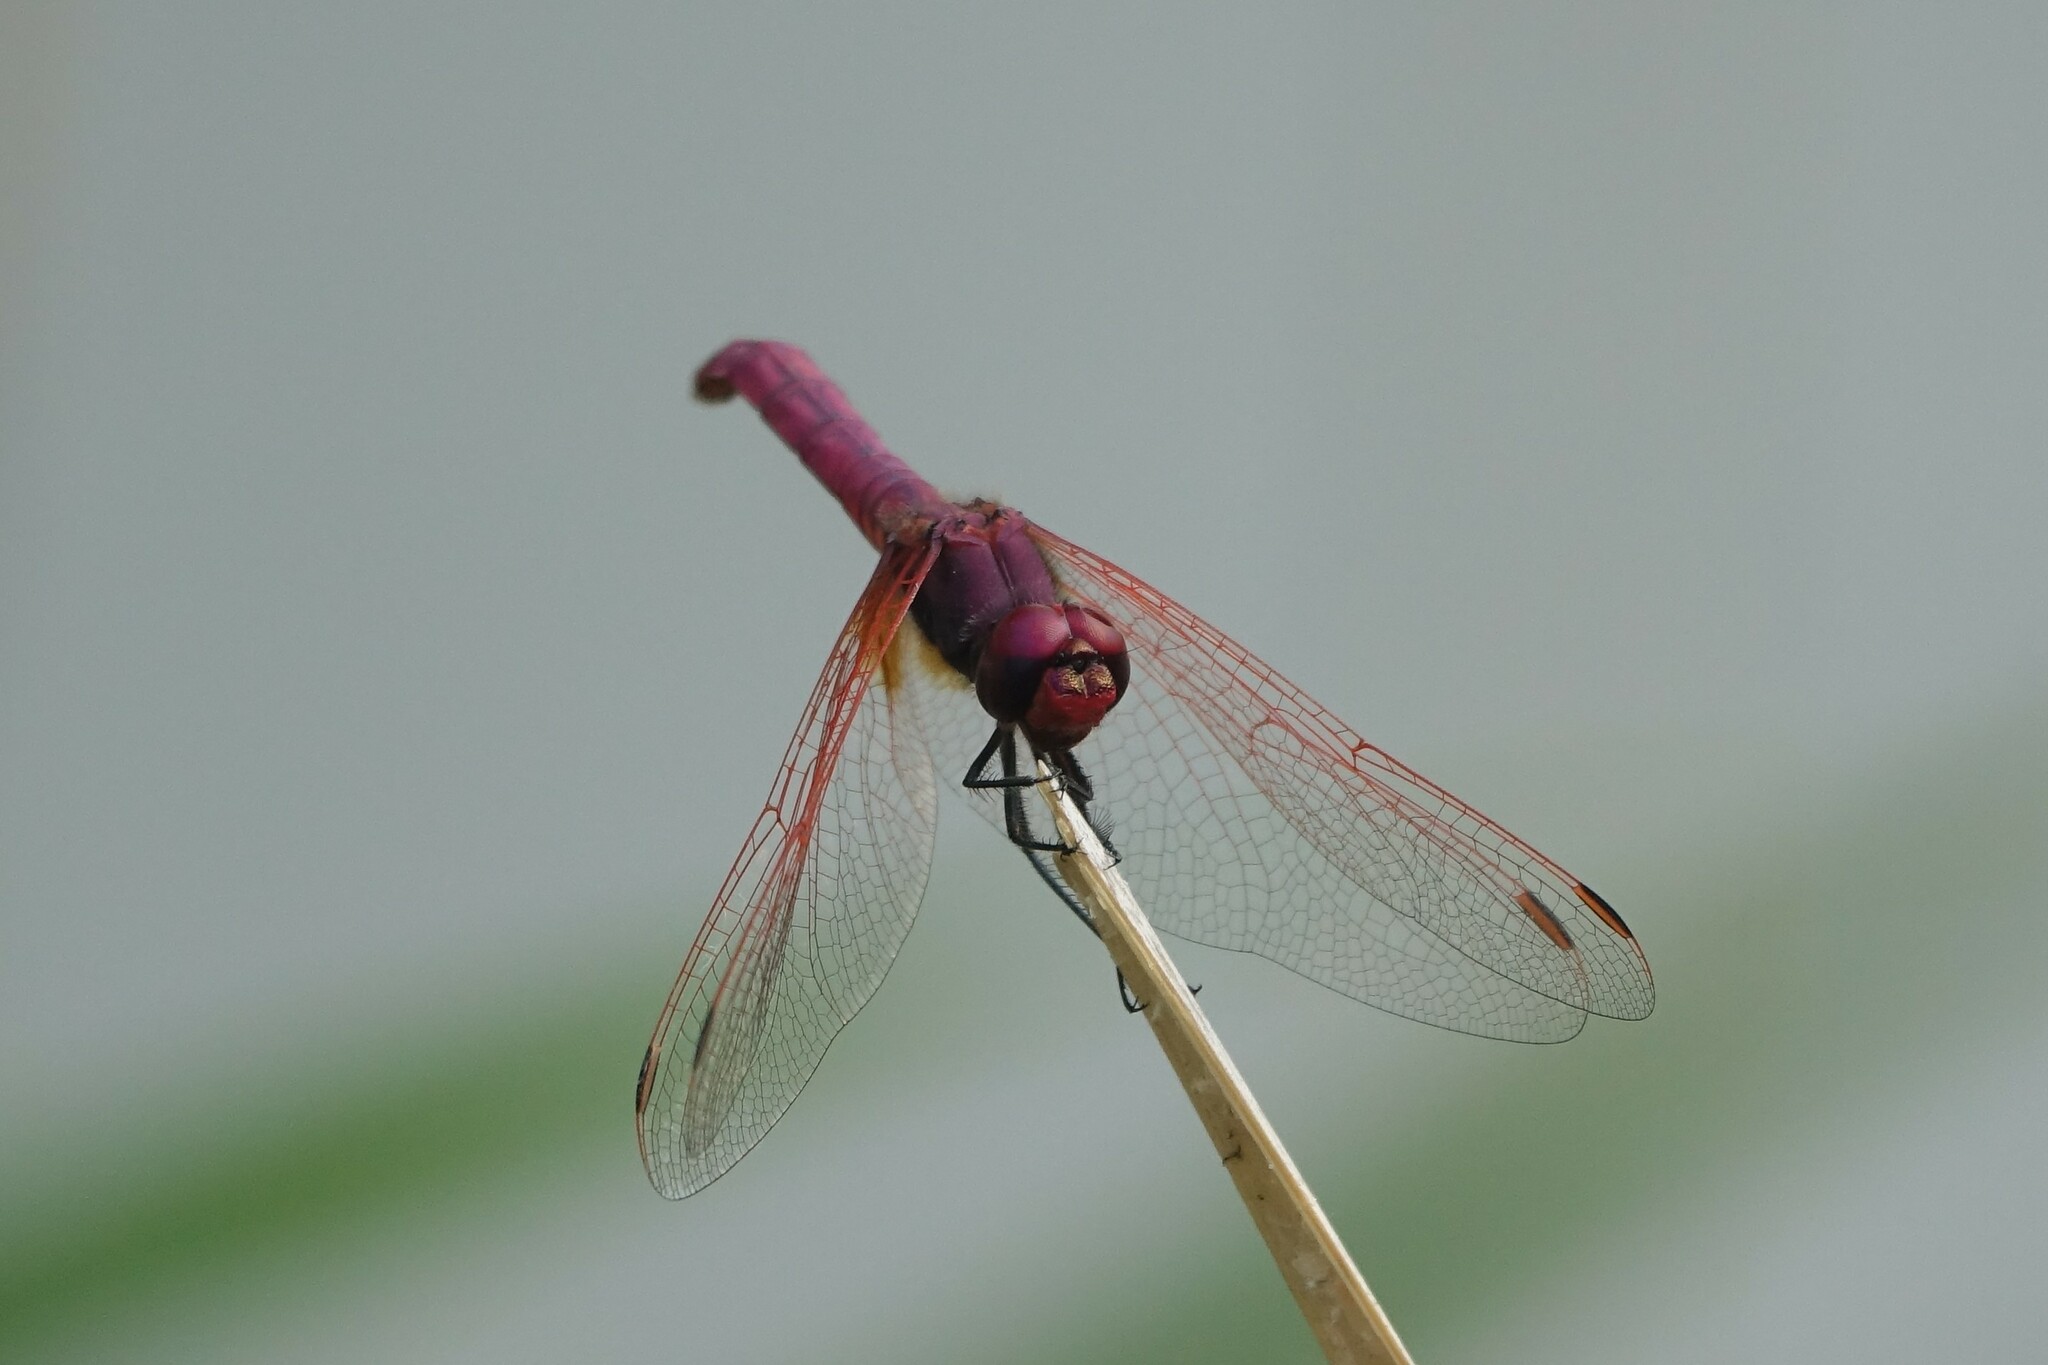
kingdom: Animalia
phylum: Arthropoda
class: Insecta
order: Odonata
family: Libellulidae
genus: Trithemis
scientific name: Trithemis annulata
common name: Violet dropwing
